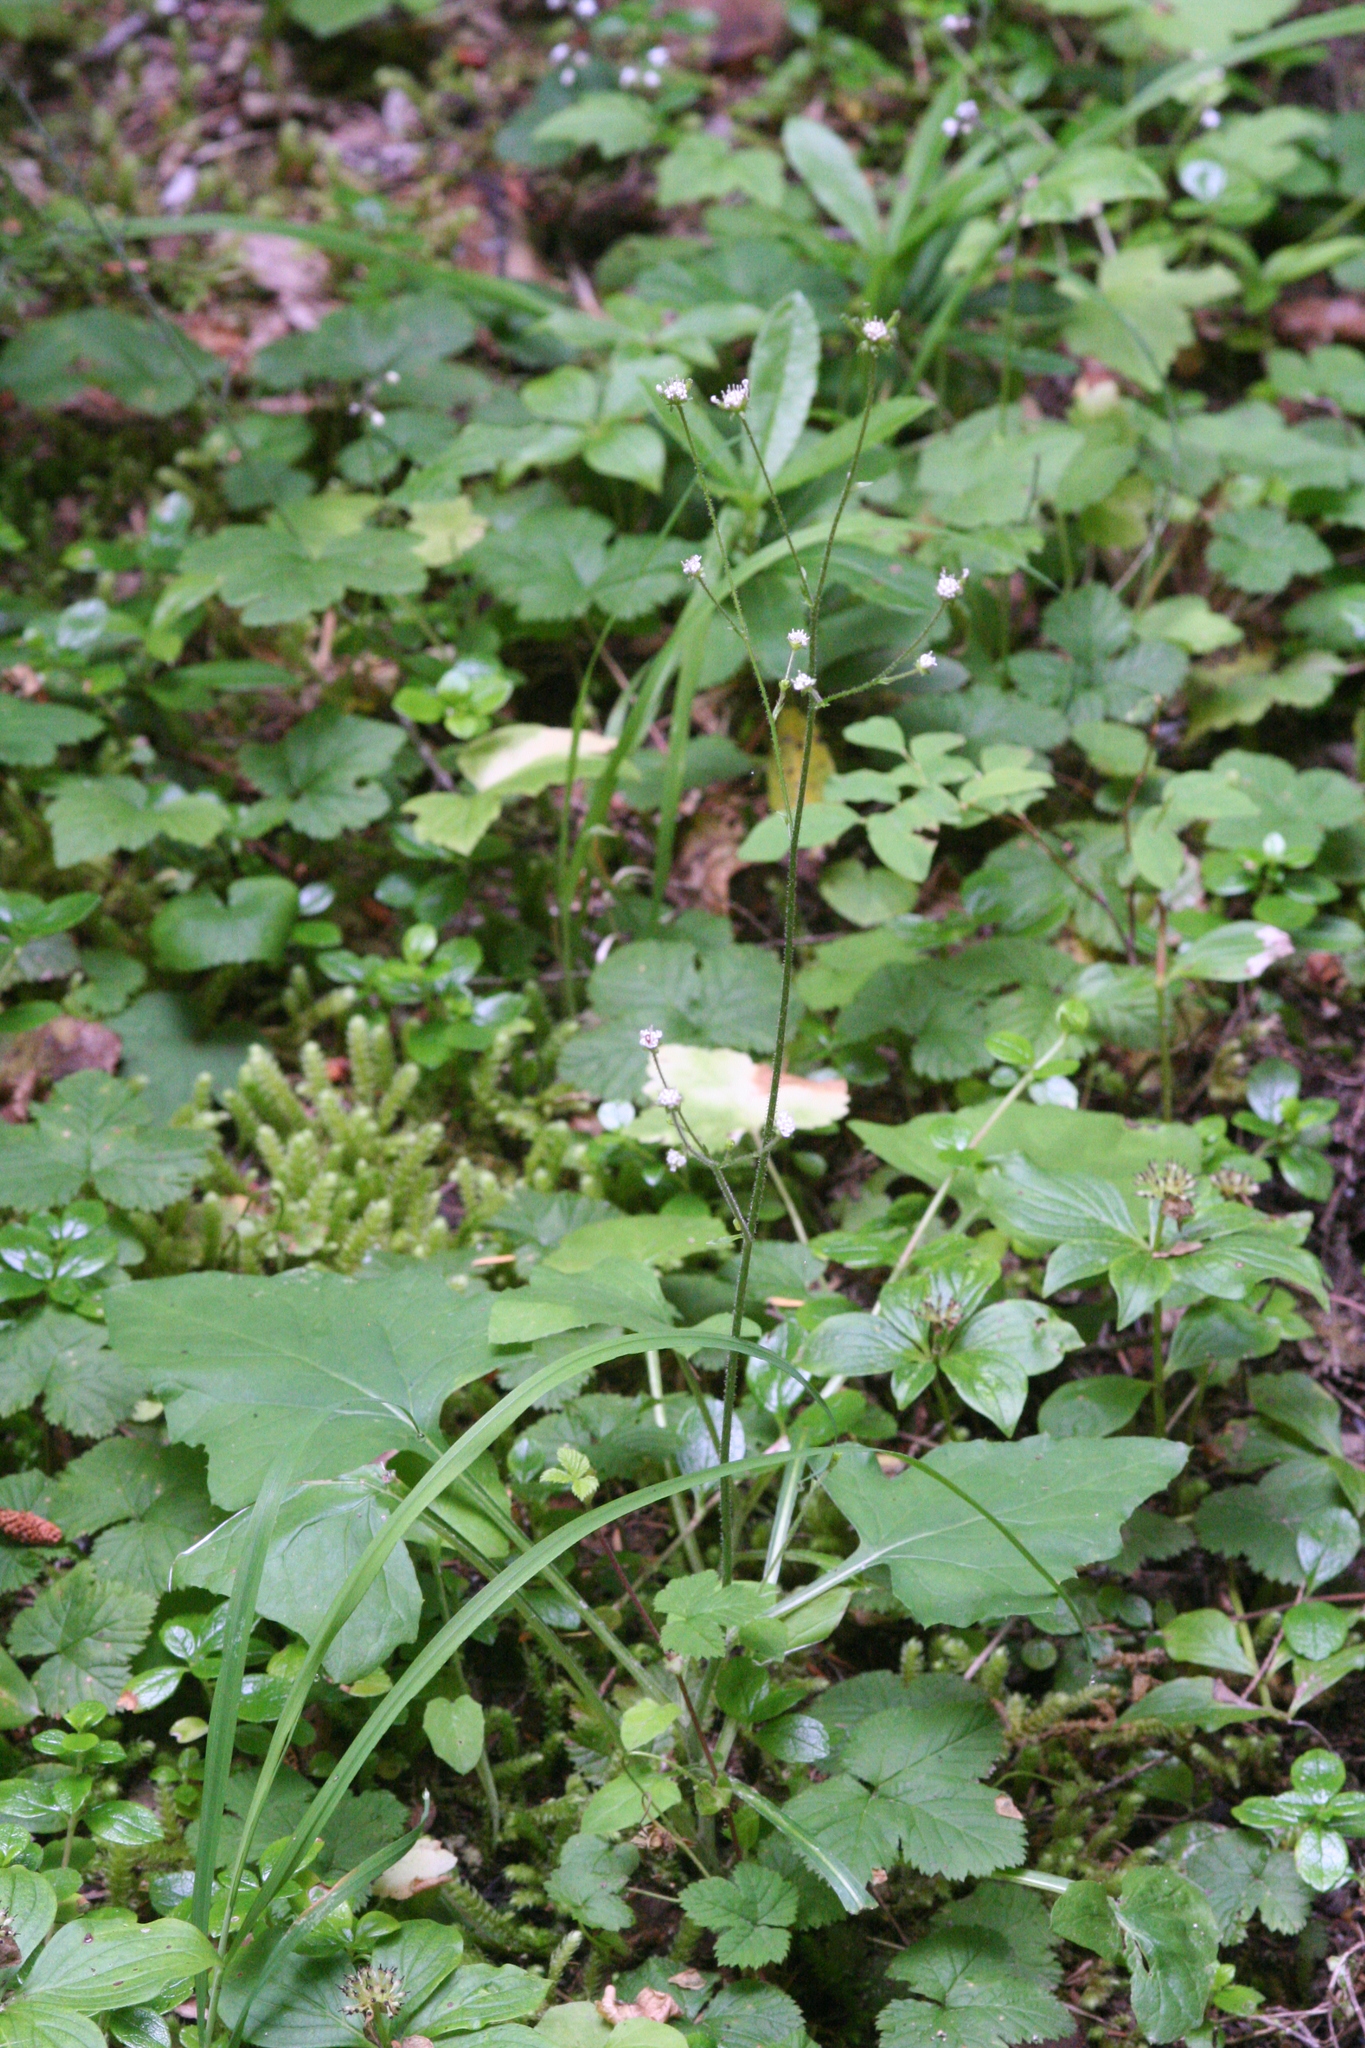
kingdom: Plantae
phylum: Tracheophyta
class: Magnoliopsida
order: Asterales
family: Asteraceae
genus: Adenocaulon
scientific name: Adenocaulon bicolor
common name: Trailplant
